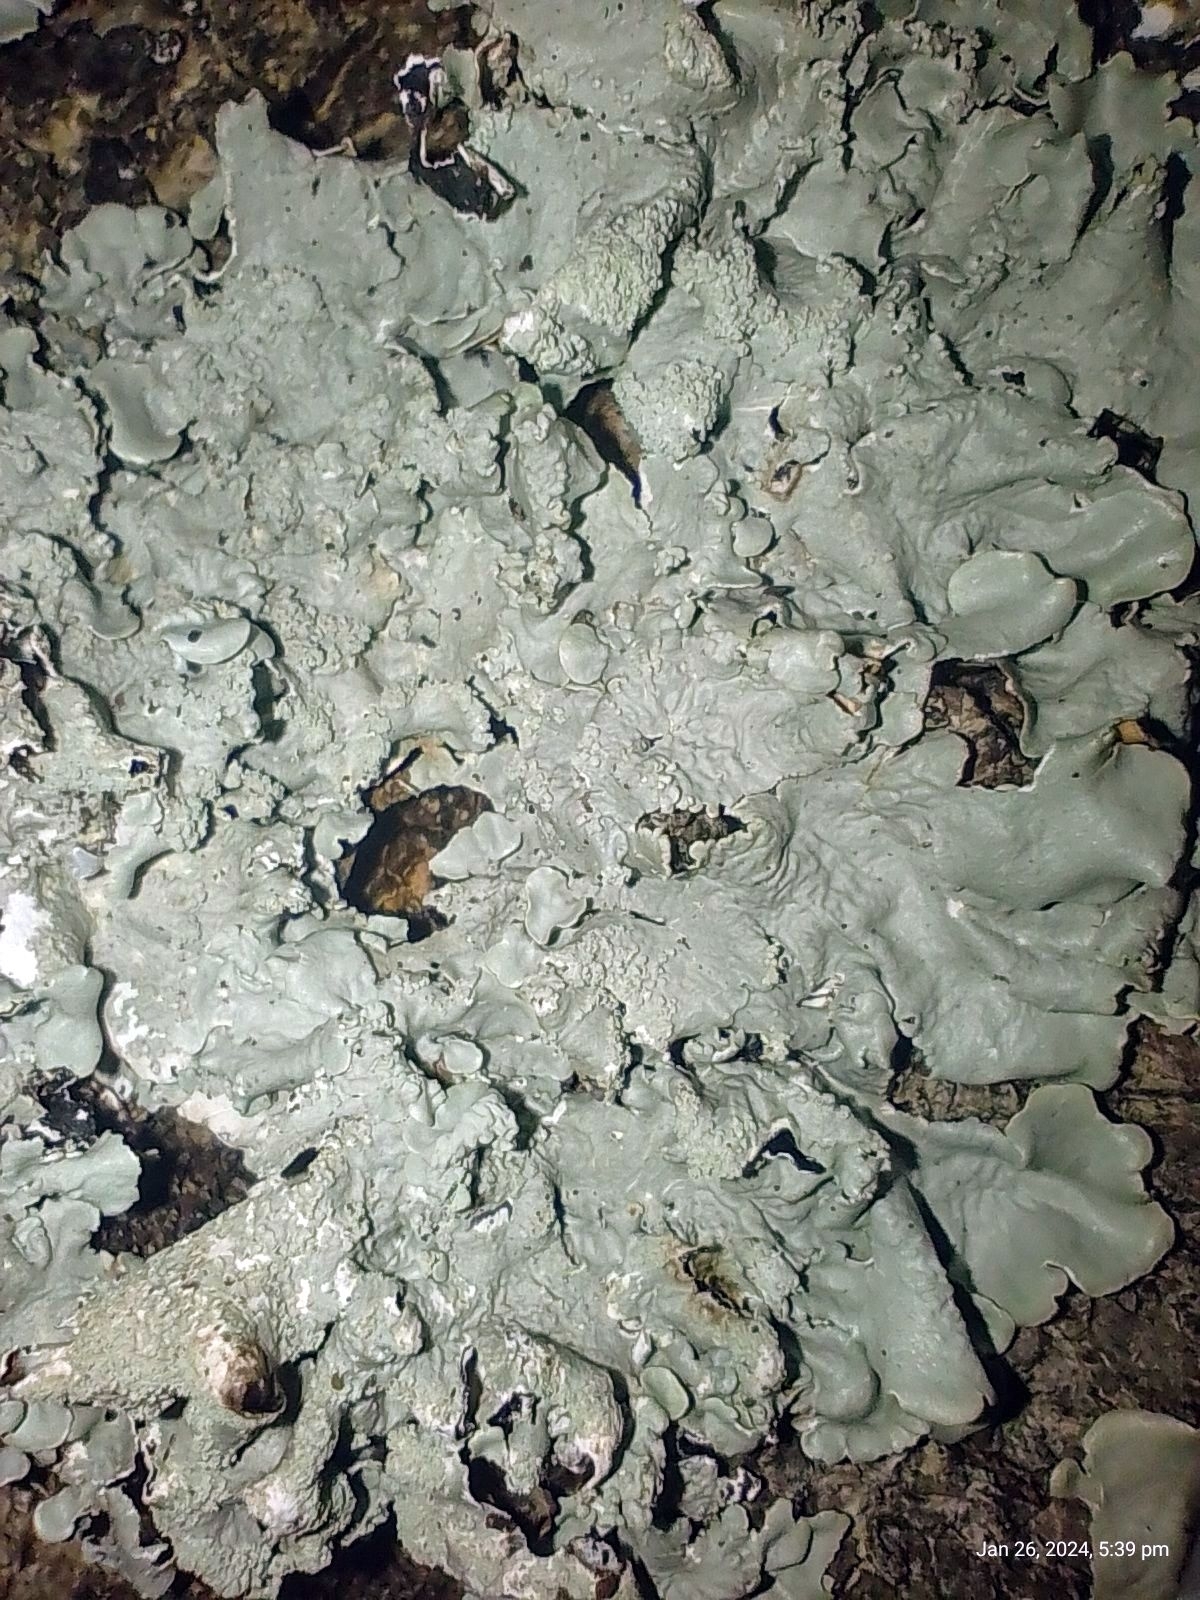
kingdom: Fungi
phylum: Ascomycota
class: Lecanoromycetes
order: Lecanorales
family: Parmeliaceae
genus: Flavoparmelia
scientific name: Flavoparmelia caperata
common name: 40-mile per hour lichen
